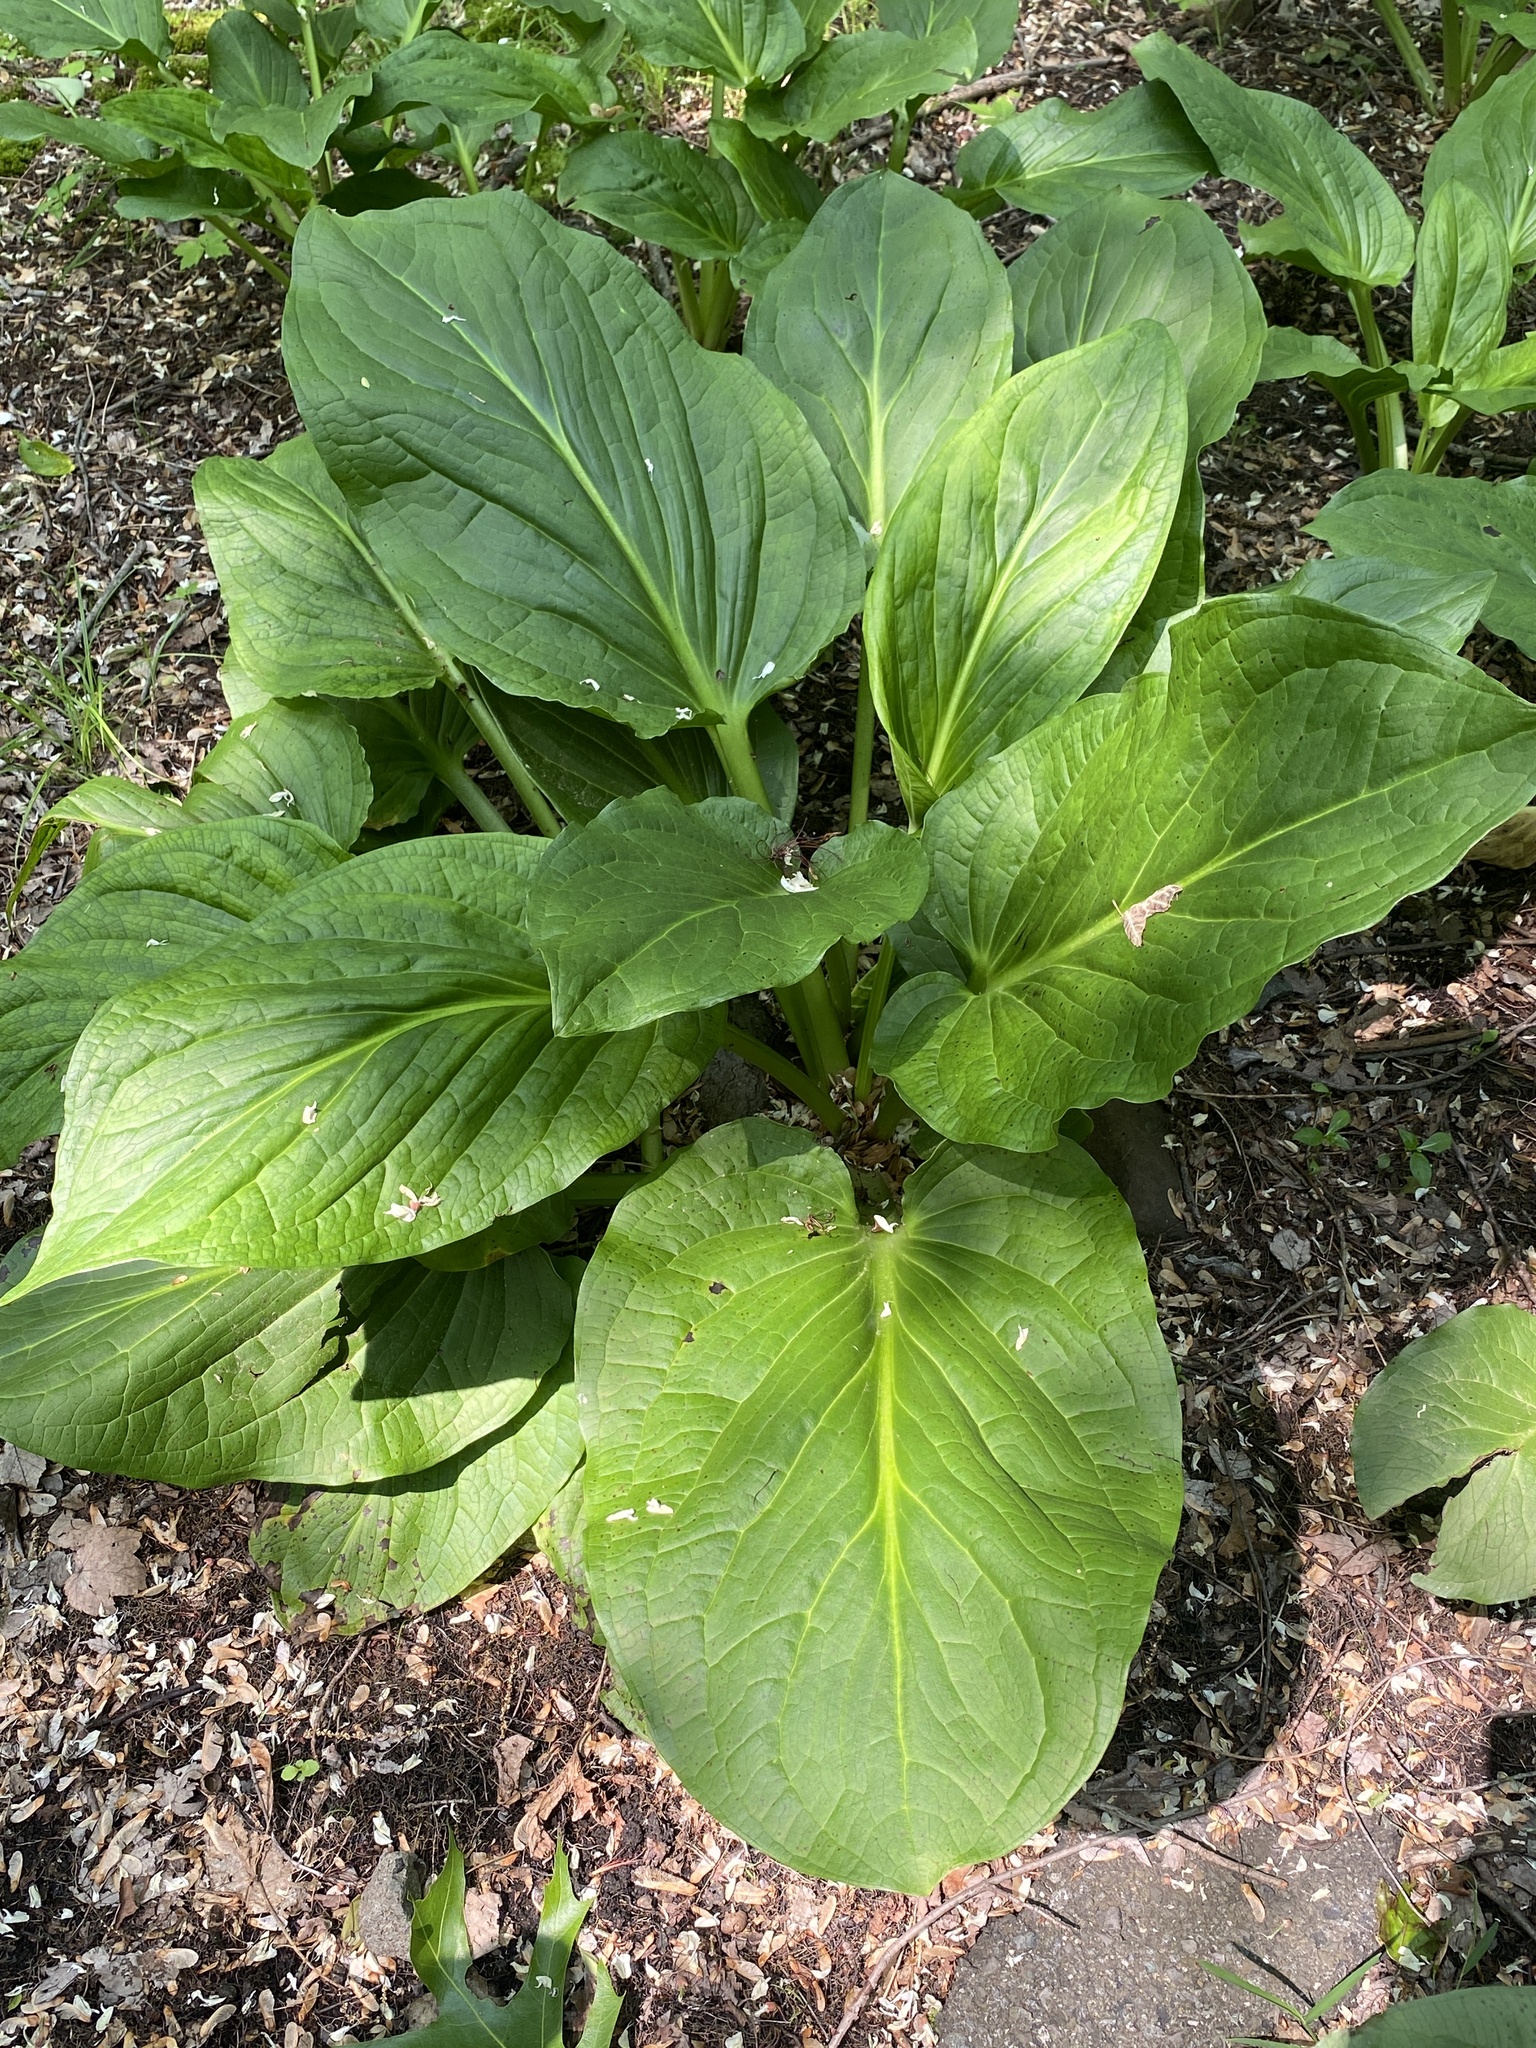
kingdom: Plantae
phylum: Tracheophyta
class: Liliopsida
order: Alismatales
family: Araceae
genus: Symplocarpus
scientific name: Symplocarpus foetidus
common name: Eastern skunk cabbage
